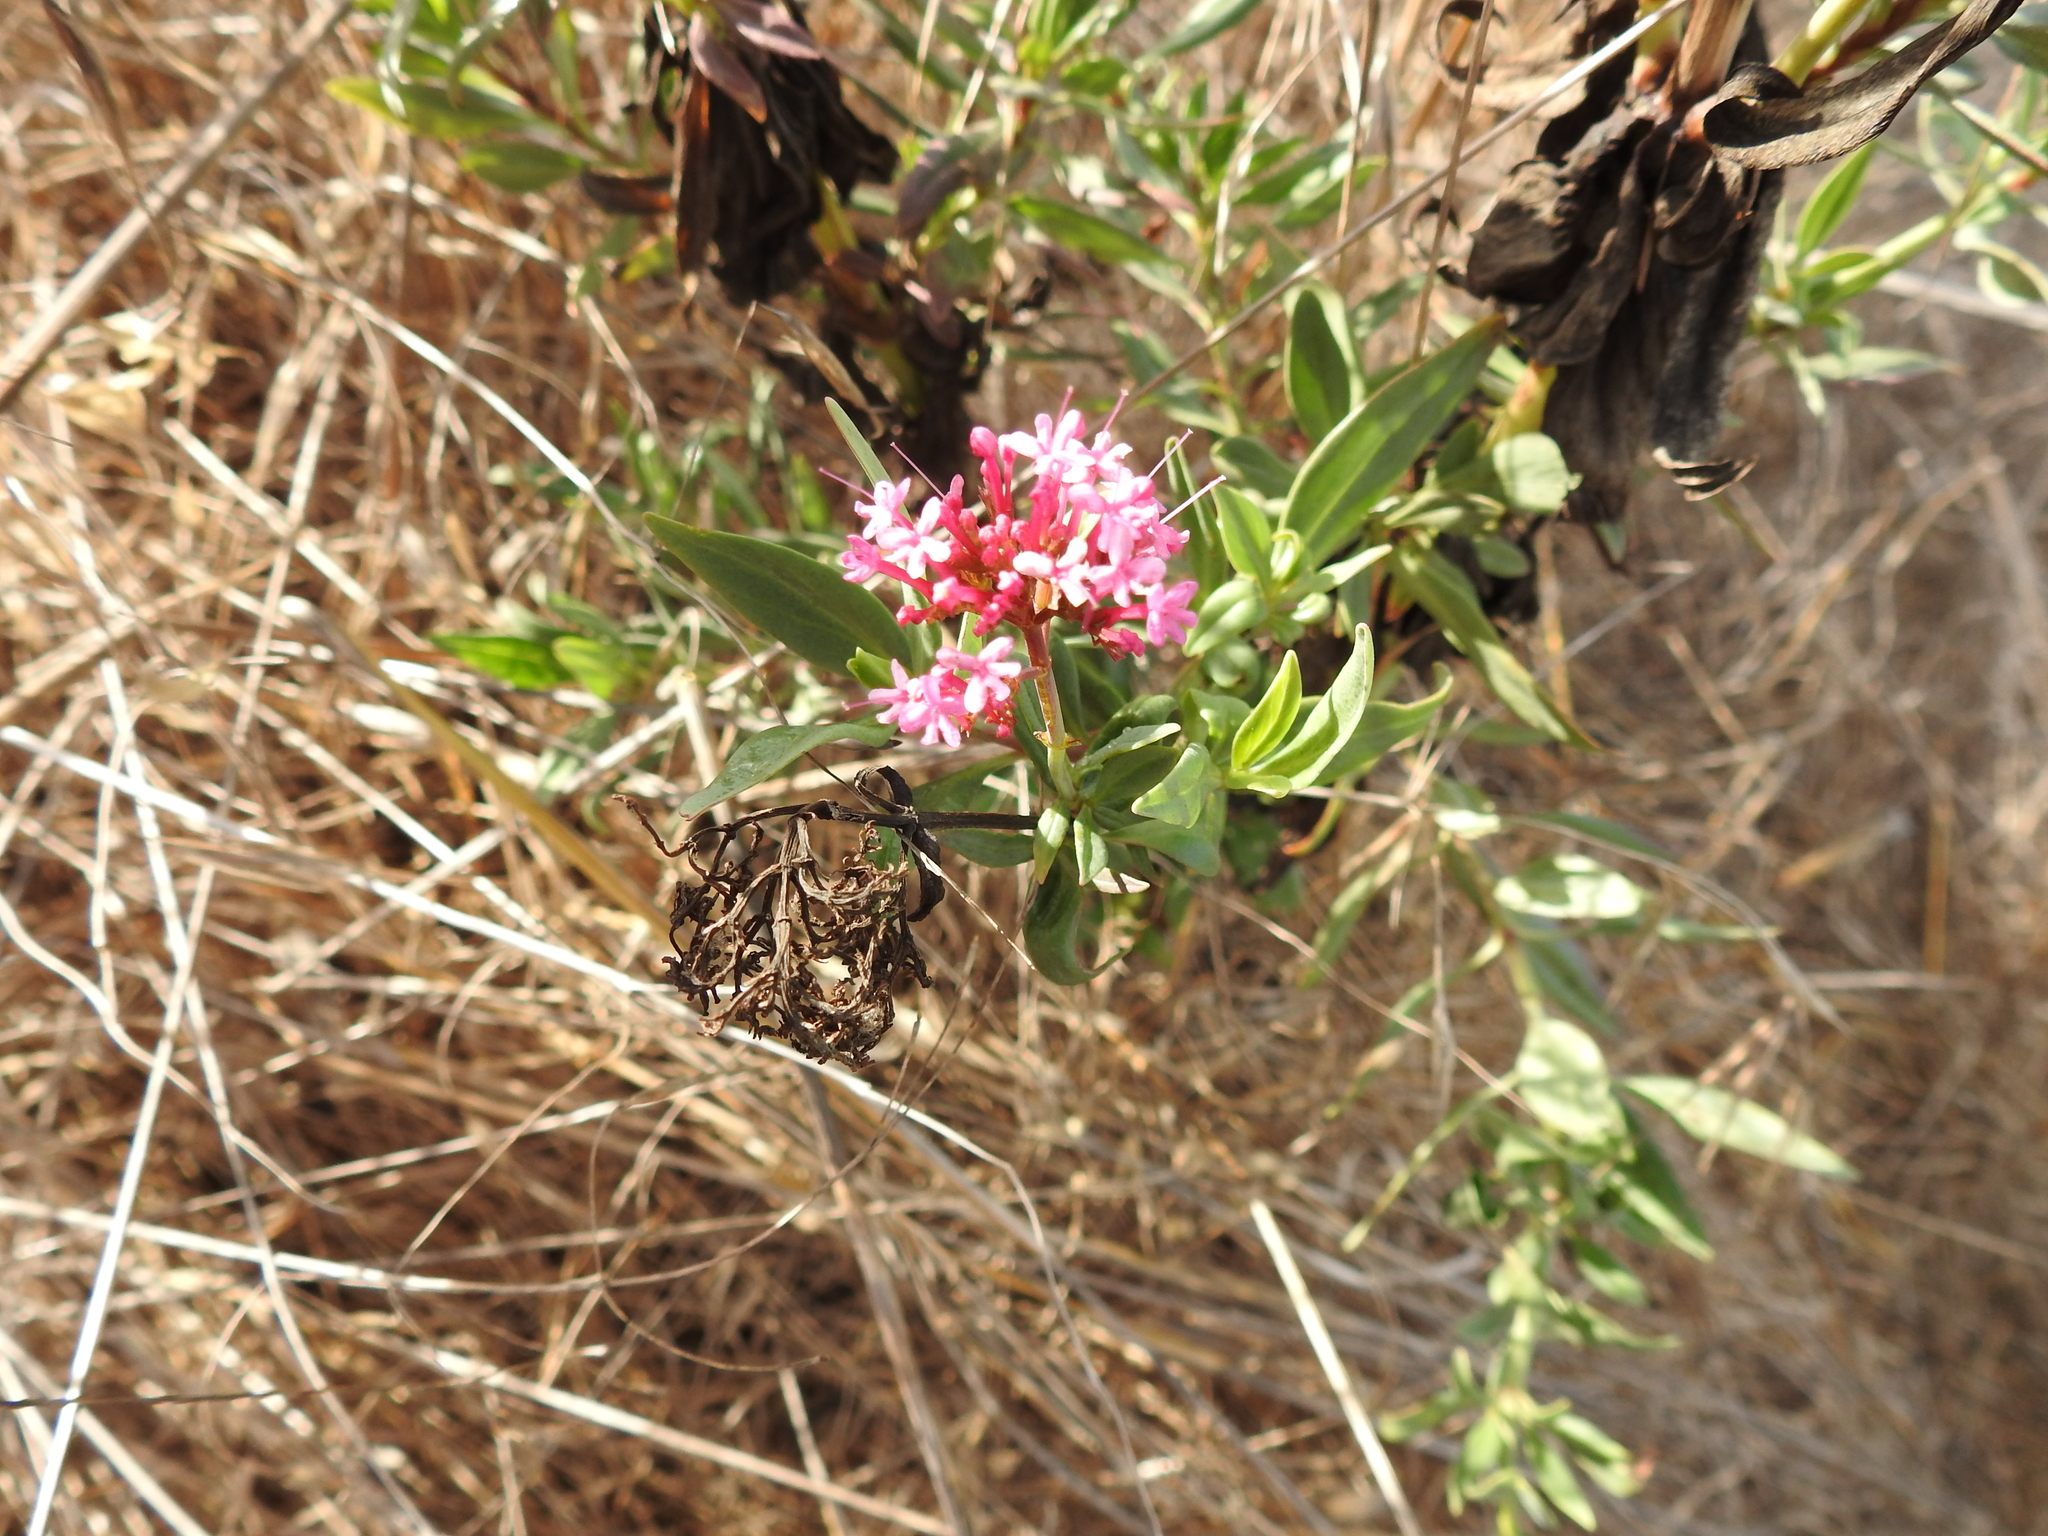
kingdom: Plantae
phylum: Tracheophyta
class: Magnoliopsida
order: Dipsacales
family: Caprifoliaceae
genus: Centranthus
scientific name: Centranthus ruber
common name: Red valerian
